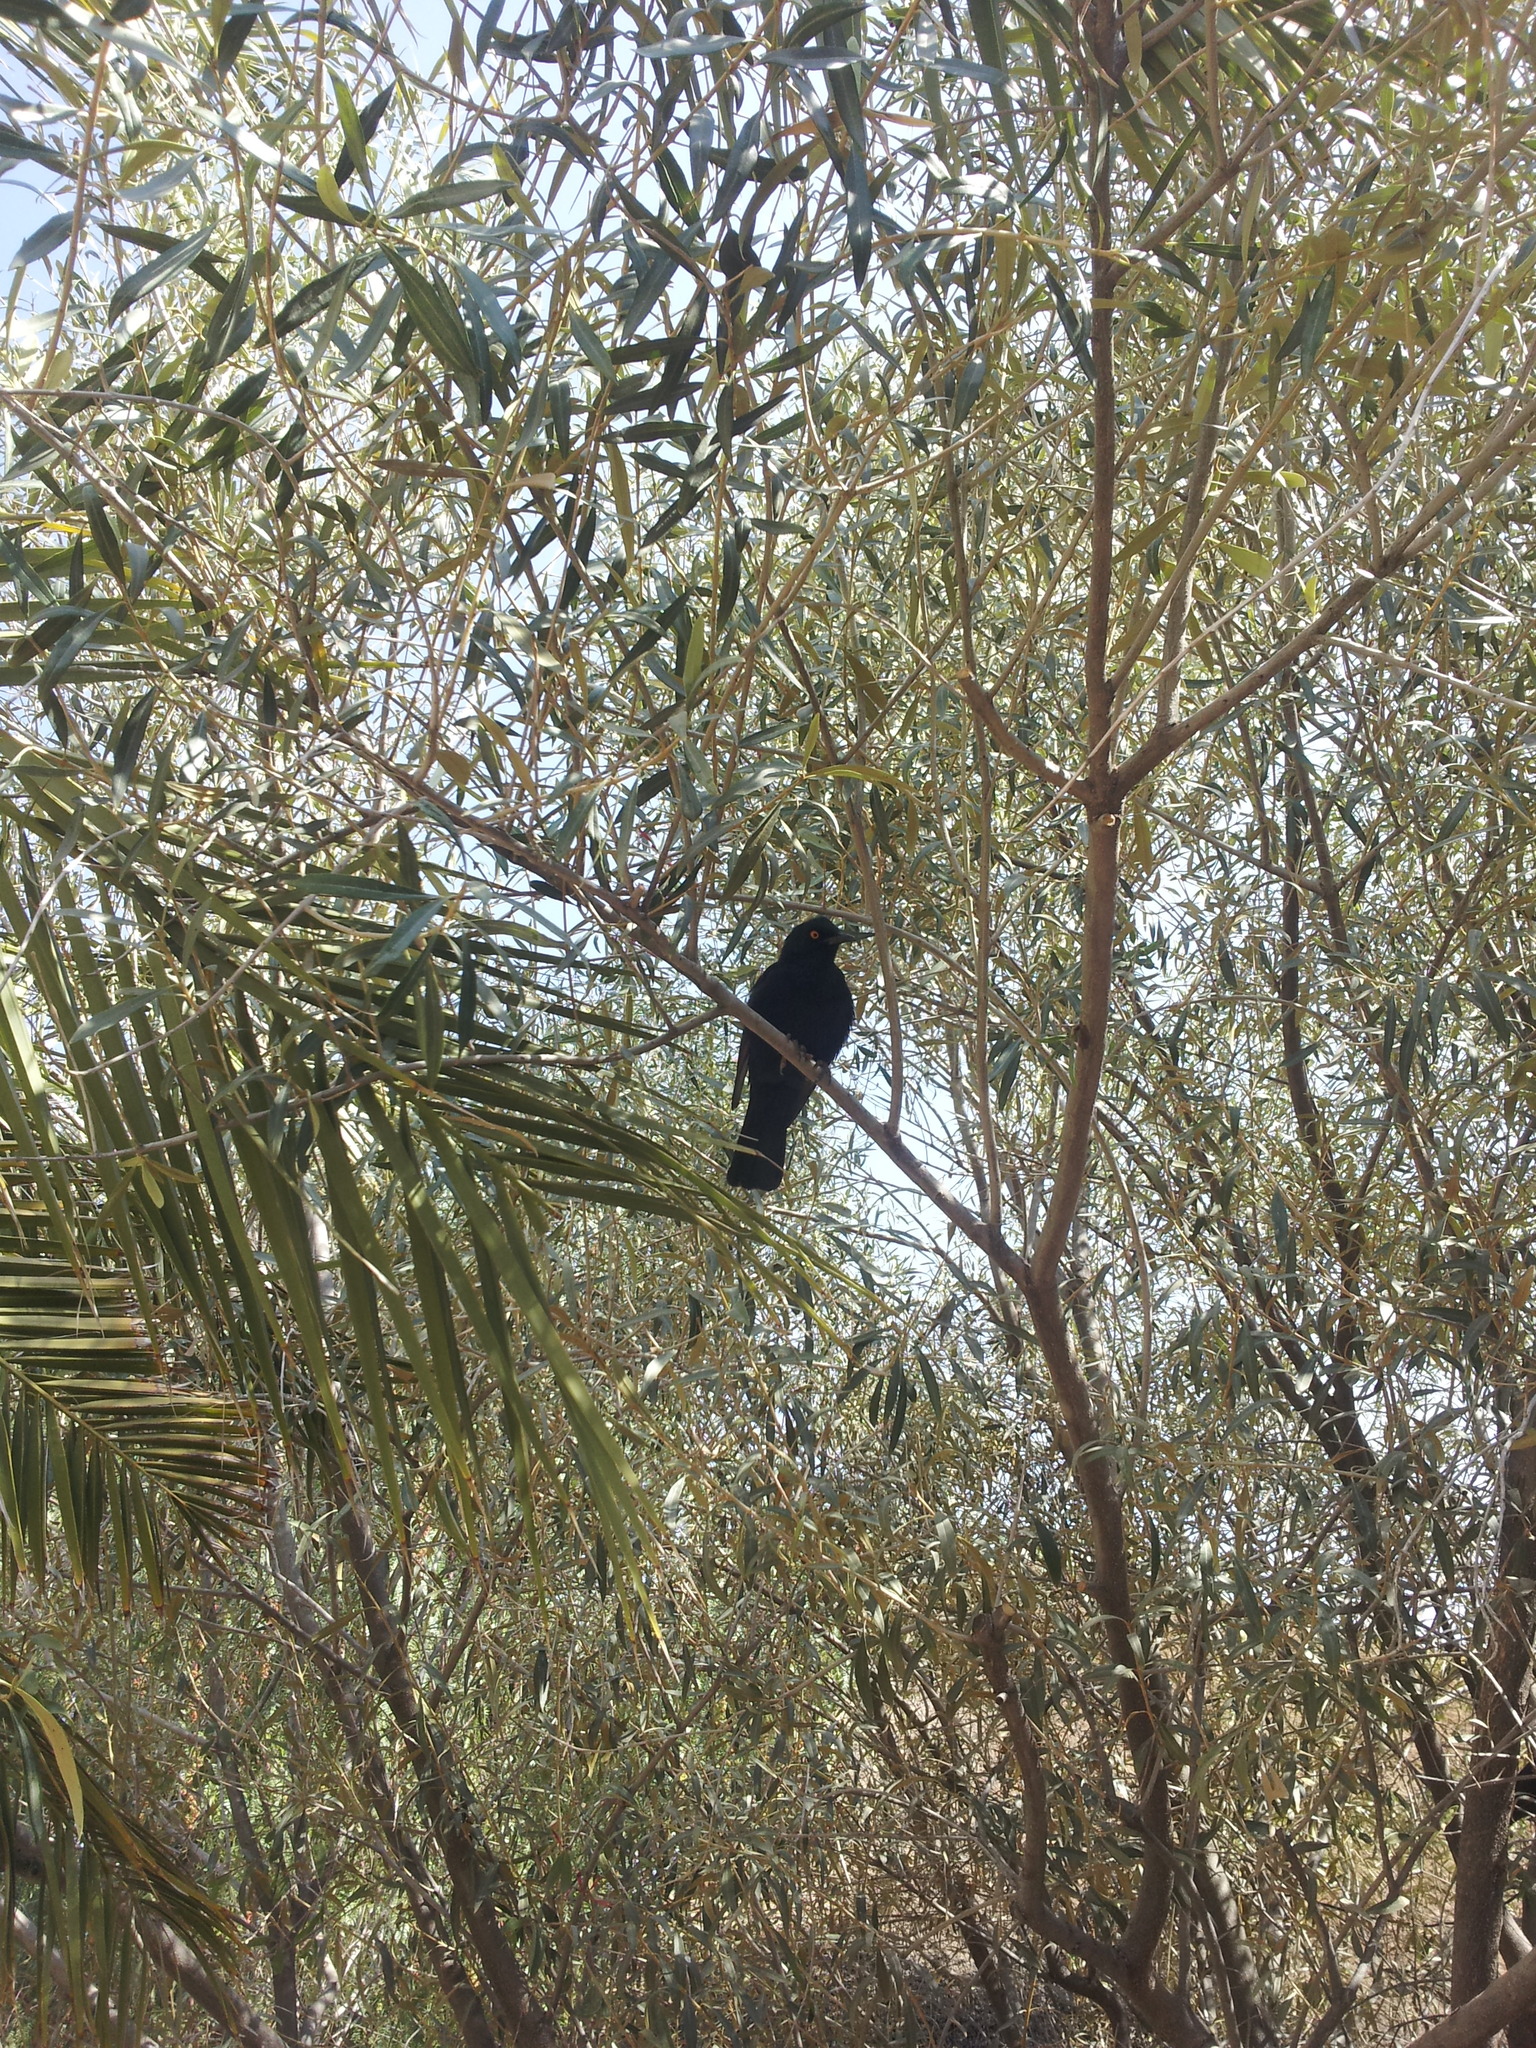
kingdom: Animalia
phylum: Chordata
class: Aves
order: Passeriformes
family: Sturnidae
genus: Onychognathus
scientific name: Onychognathus nabouroup
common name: Pale-winged starling
